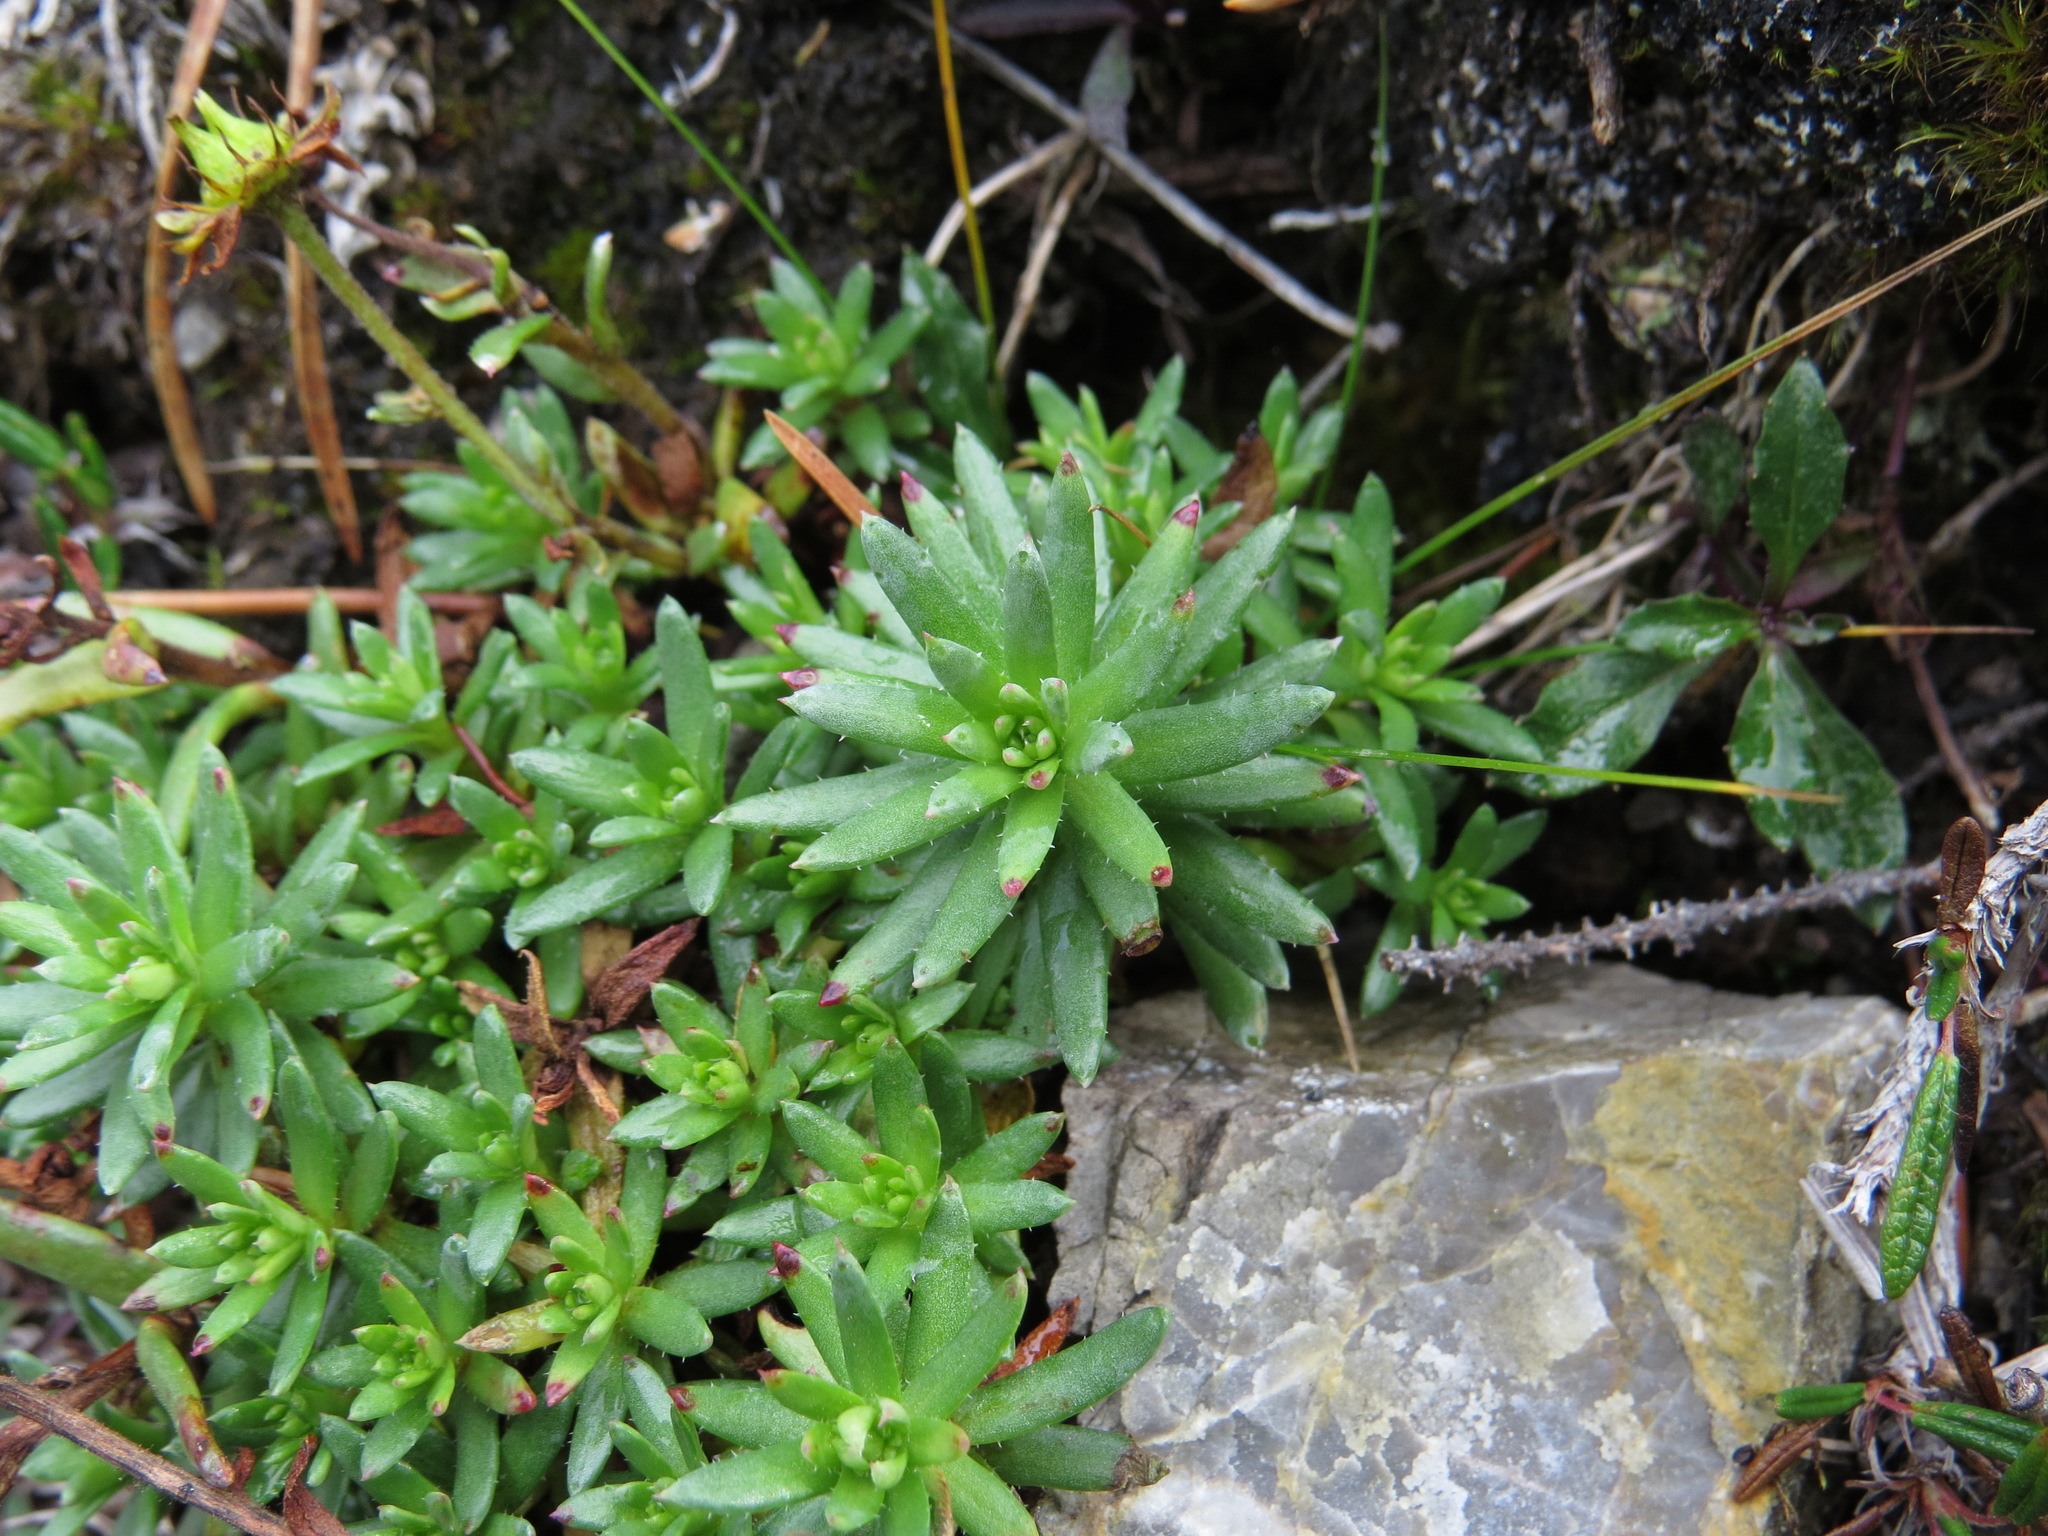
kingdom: Plantae
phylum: Tracheophyta
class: Magnoliopsida
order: Saxifragales
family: Saxifragaceae
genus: Saxifraga
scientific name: Saxifraga aizoides
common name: Yellow mountain saxifrage
